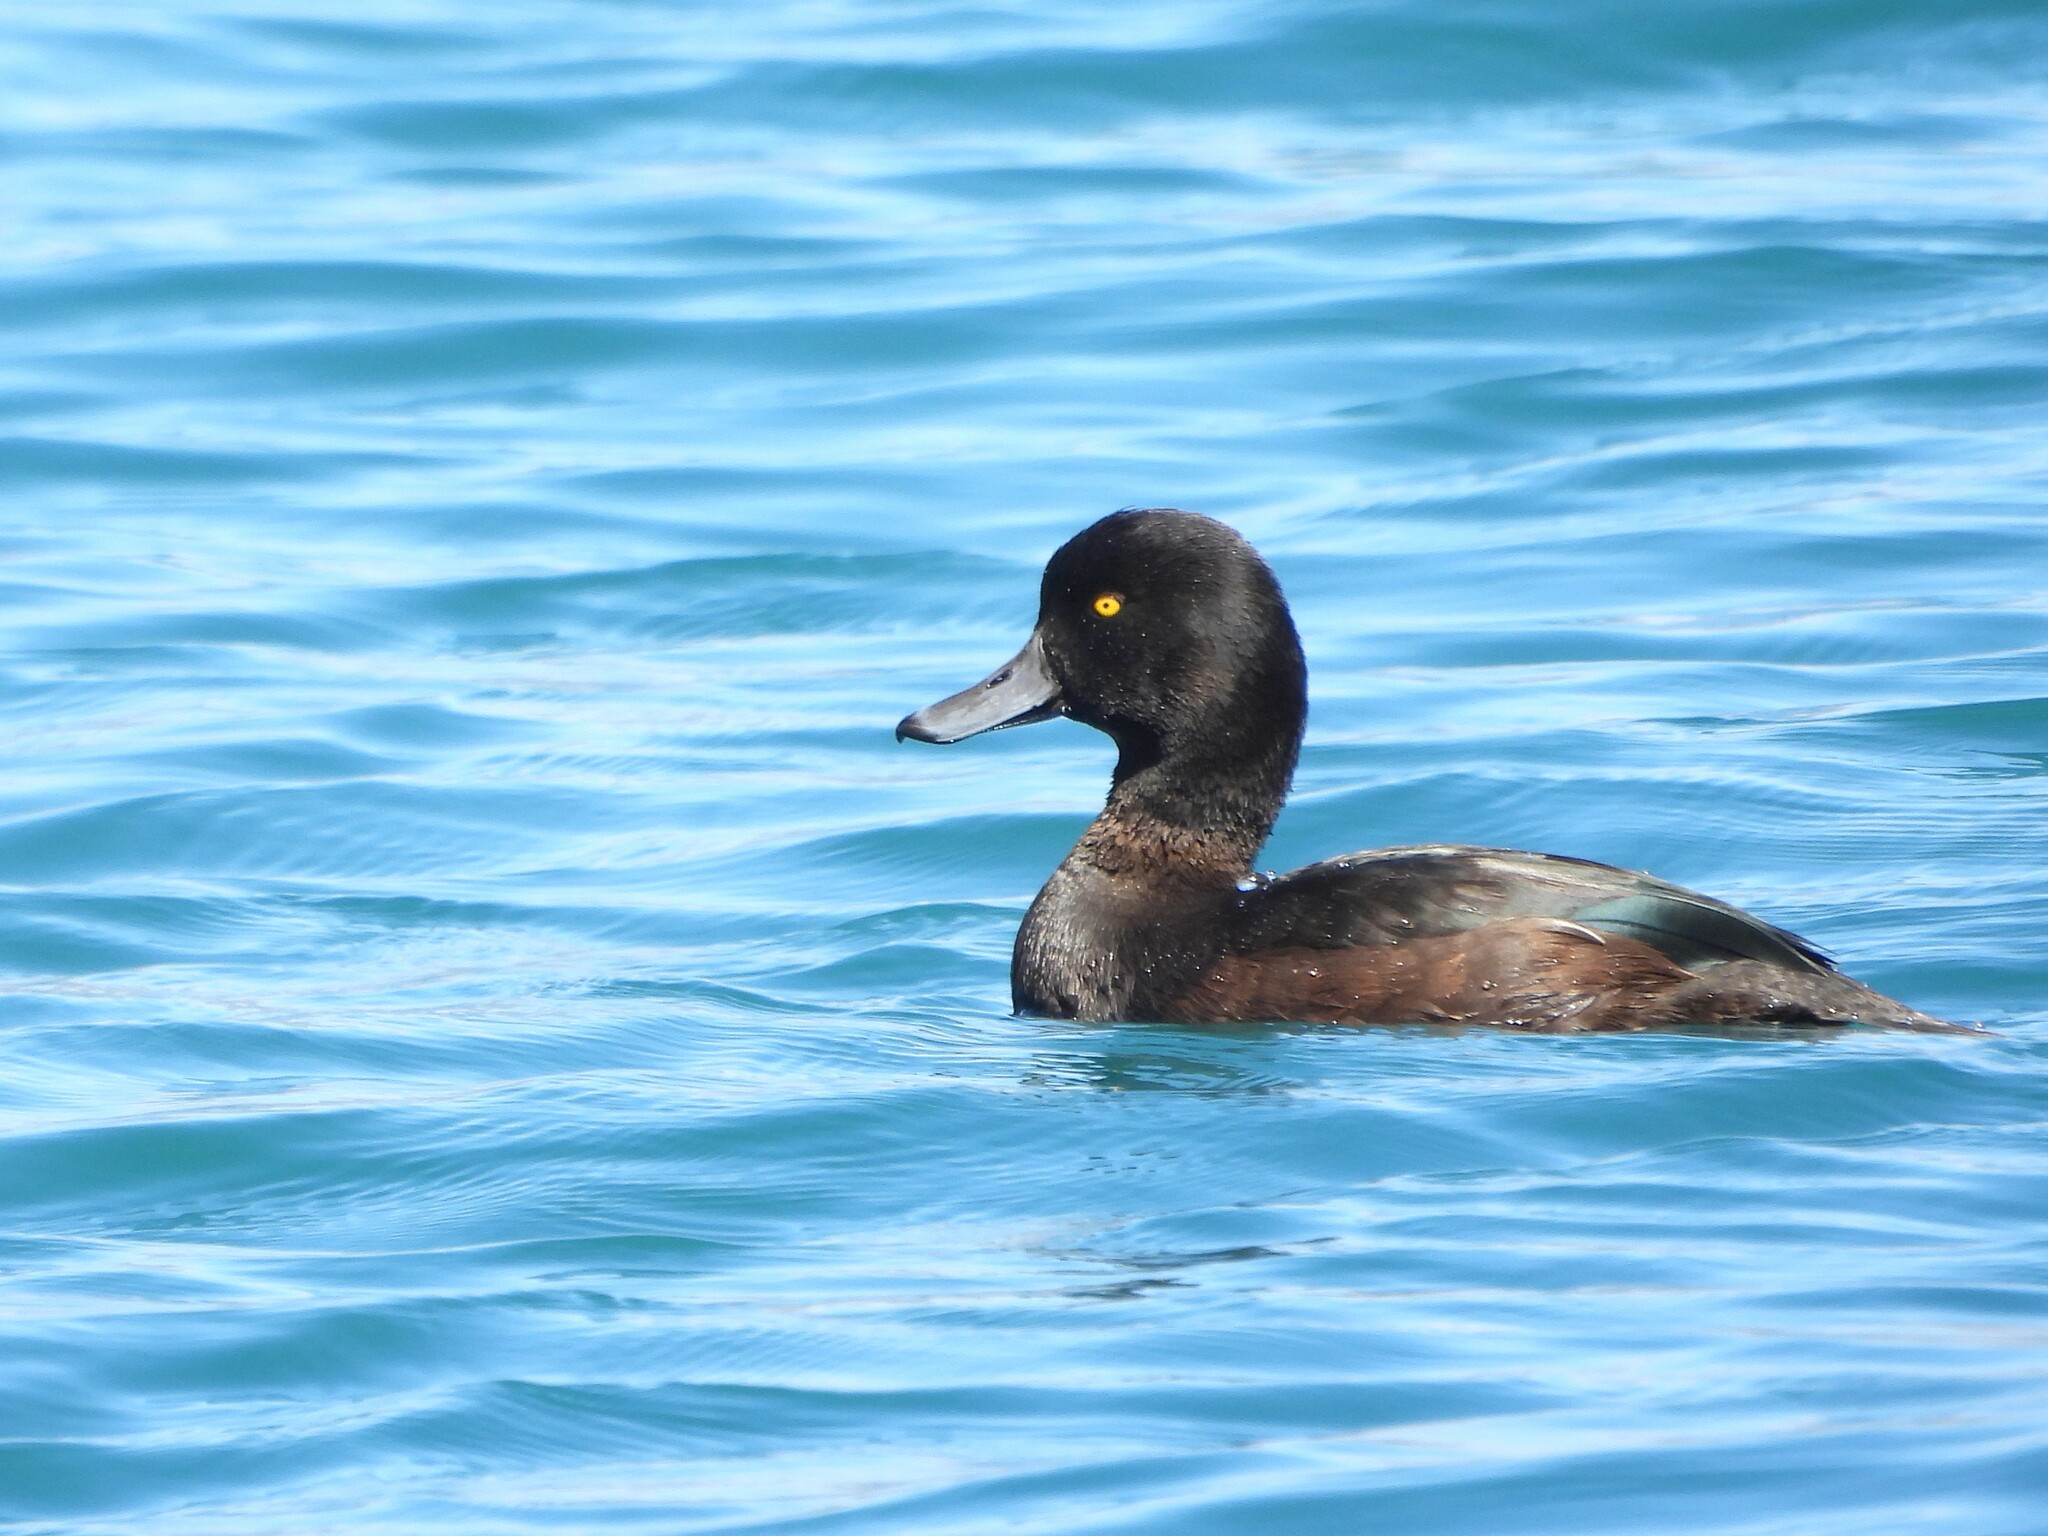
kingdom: Animalia
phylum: Chordata
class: Aves
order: Anseriformes
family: Anatidae
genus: Aythya
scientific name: Aythya novaeseelandiae
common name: New zealand scaup
